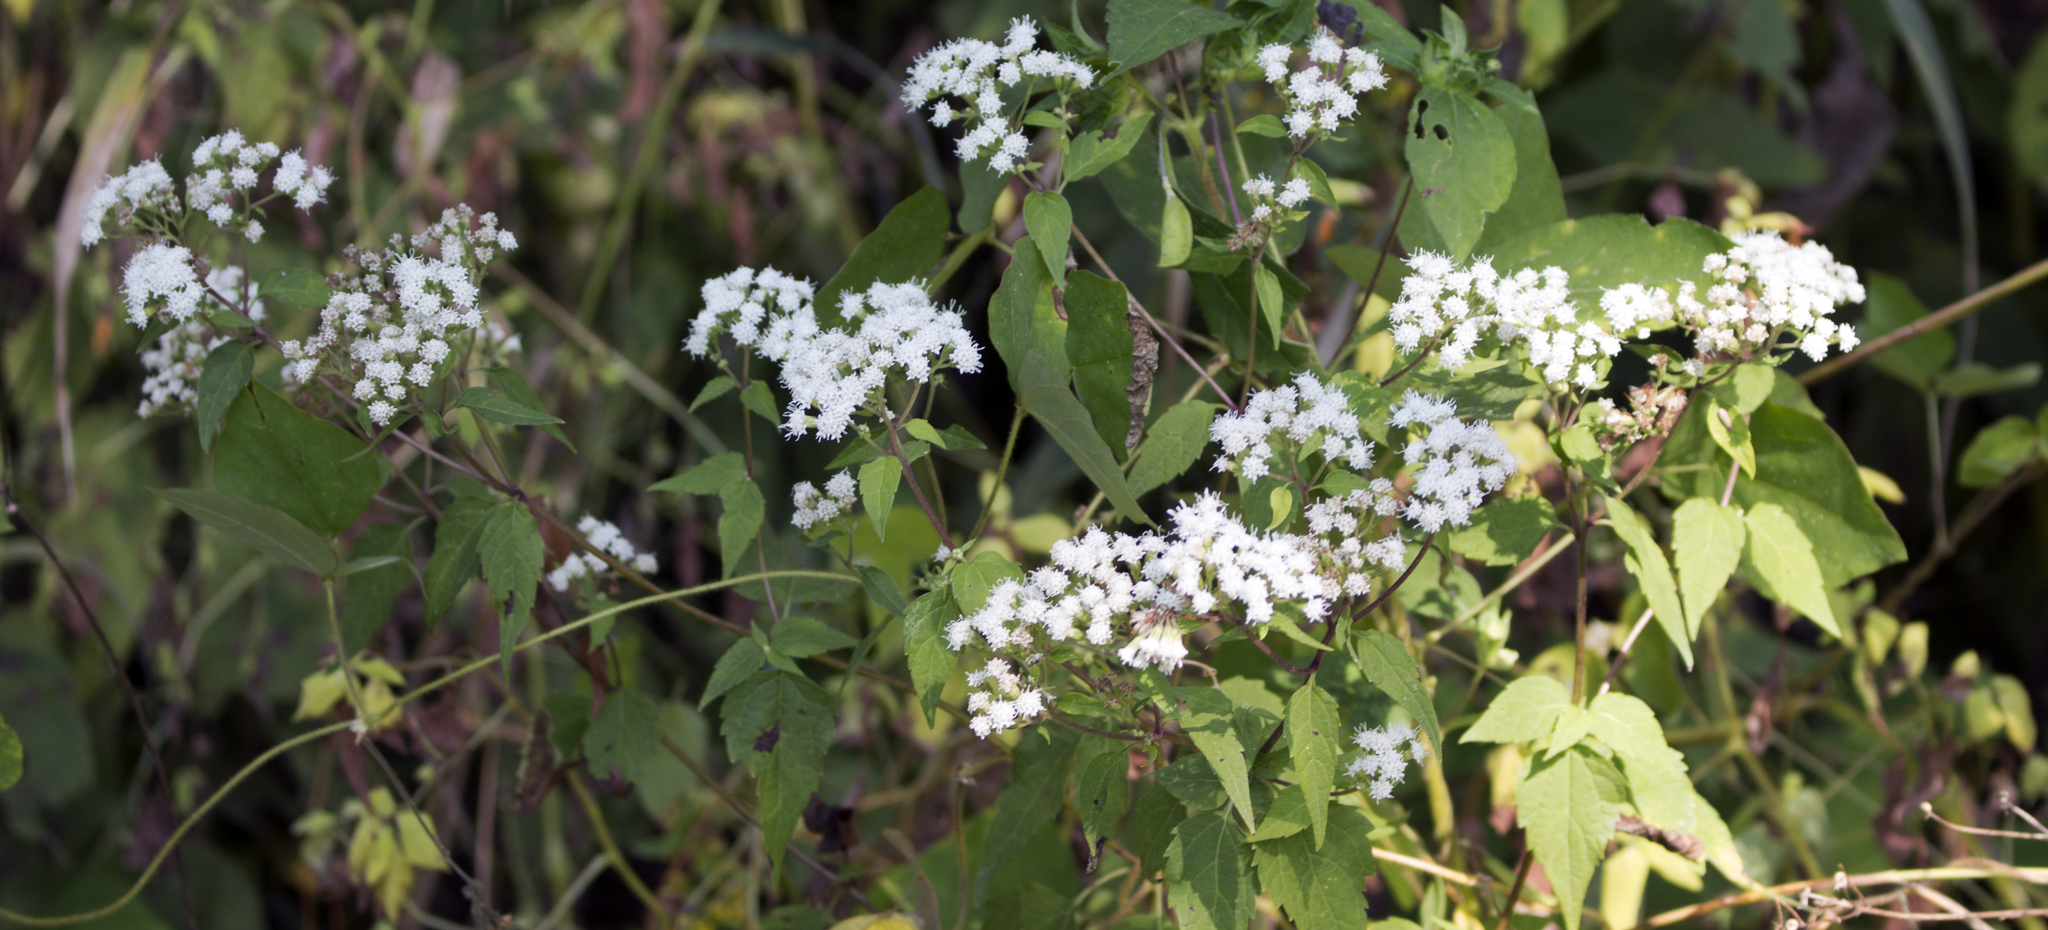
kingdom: Plantae
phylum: Tracheophyta
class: Magnoliopsida
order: Asterales
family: Asteraceae
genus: Ageratina
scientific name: Ageratina altissima
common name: White snakeroot
